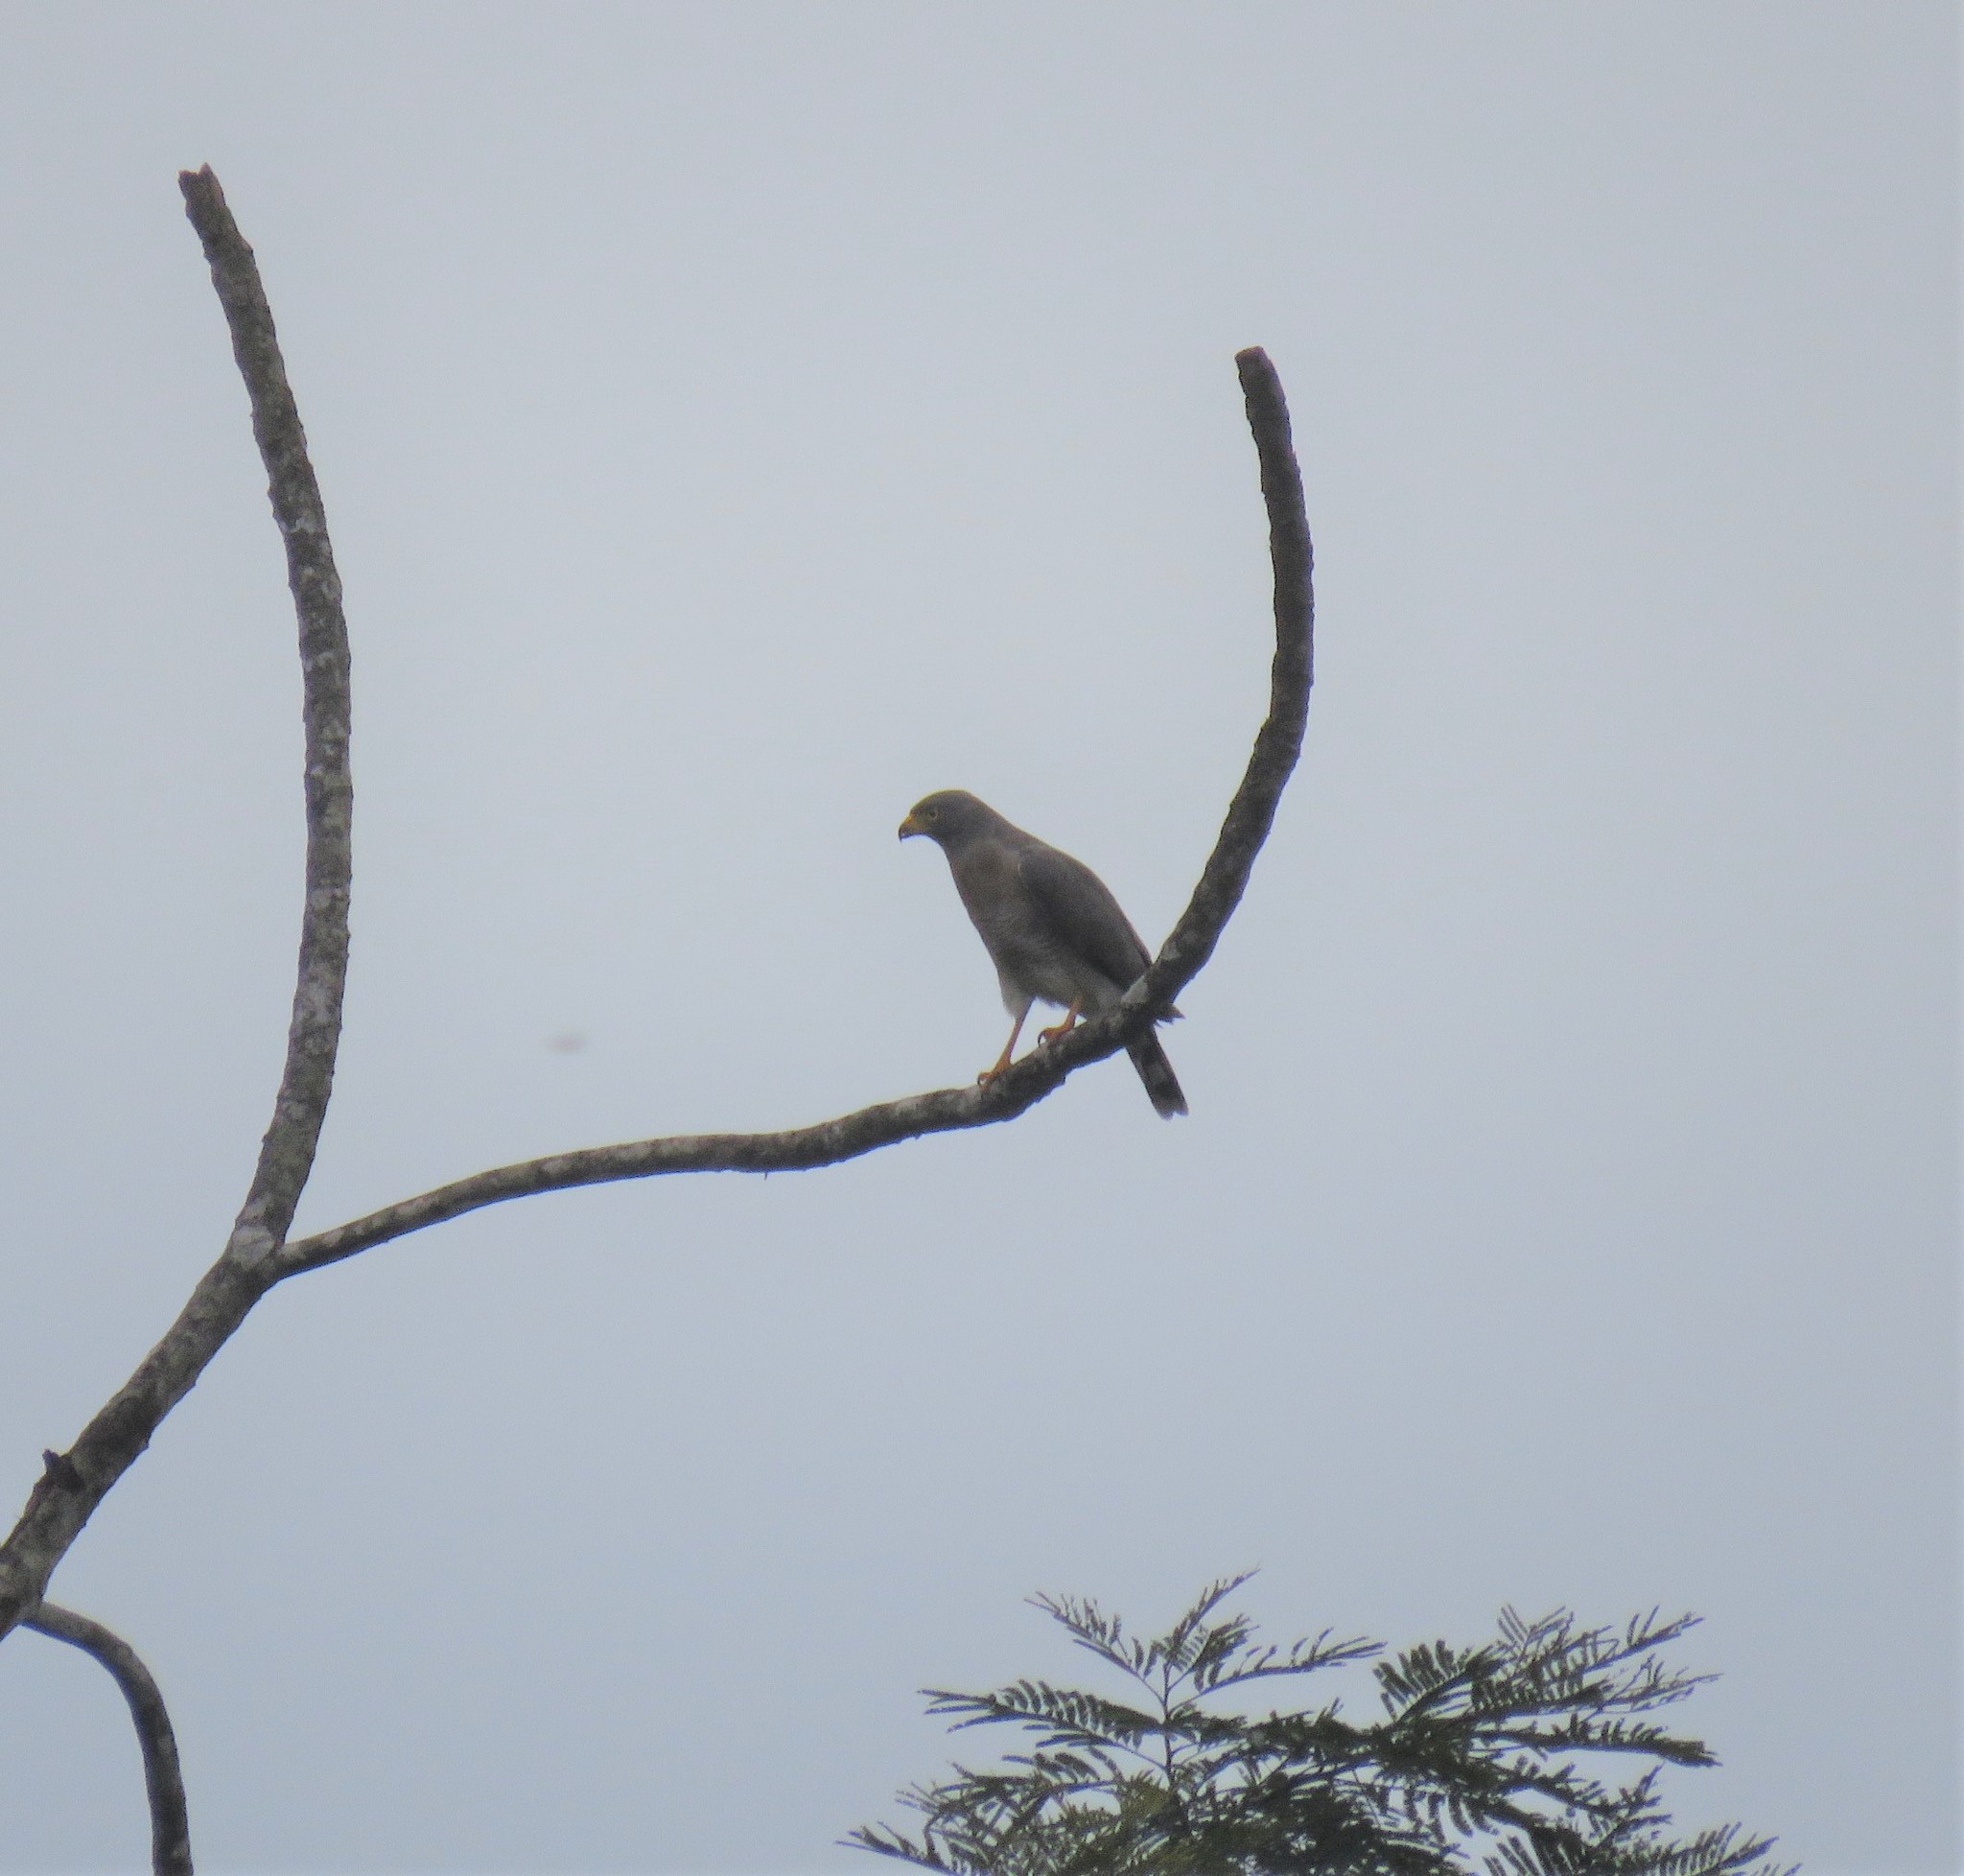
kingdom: Animalia
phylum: Chordata
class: Aves
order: Accipitriformes
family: Accipitridae
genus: Rupornis
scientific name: Rupornis magnirostris
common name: Roadside hawk
